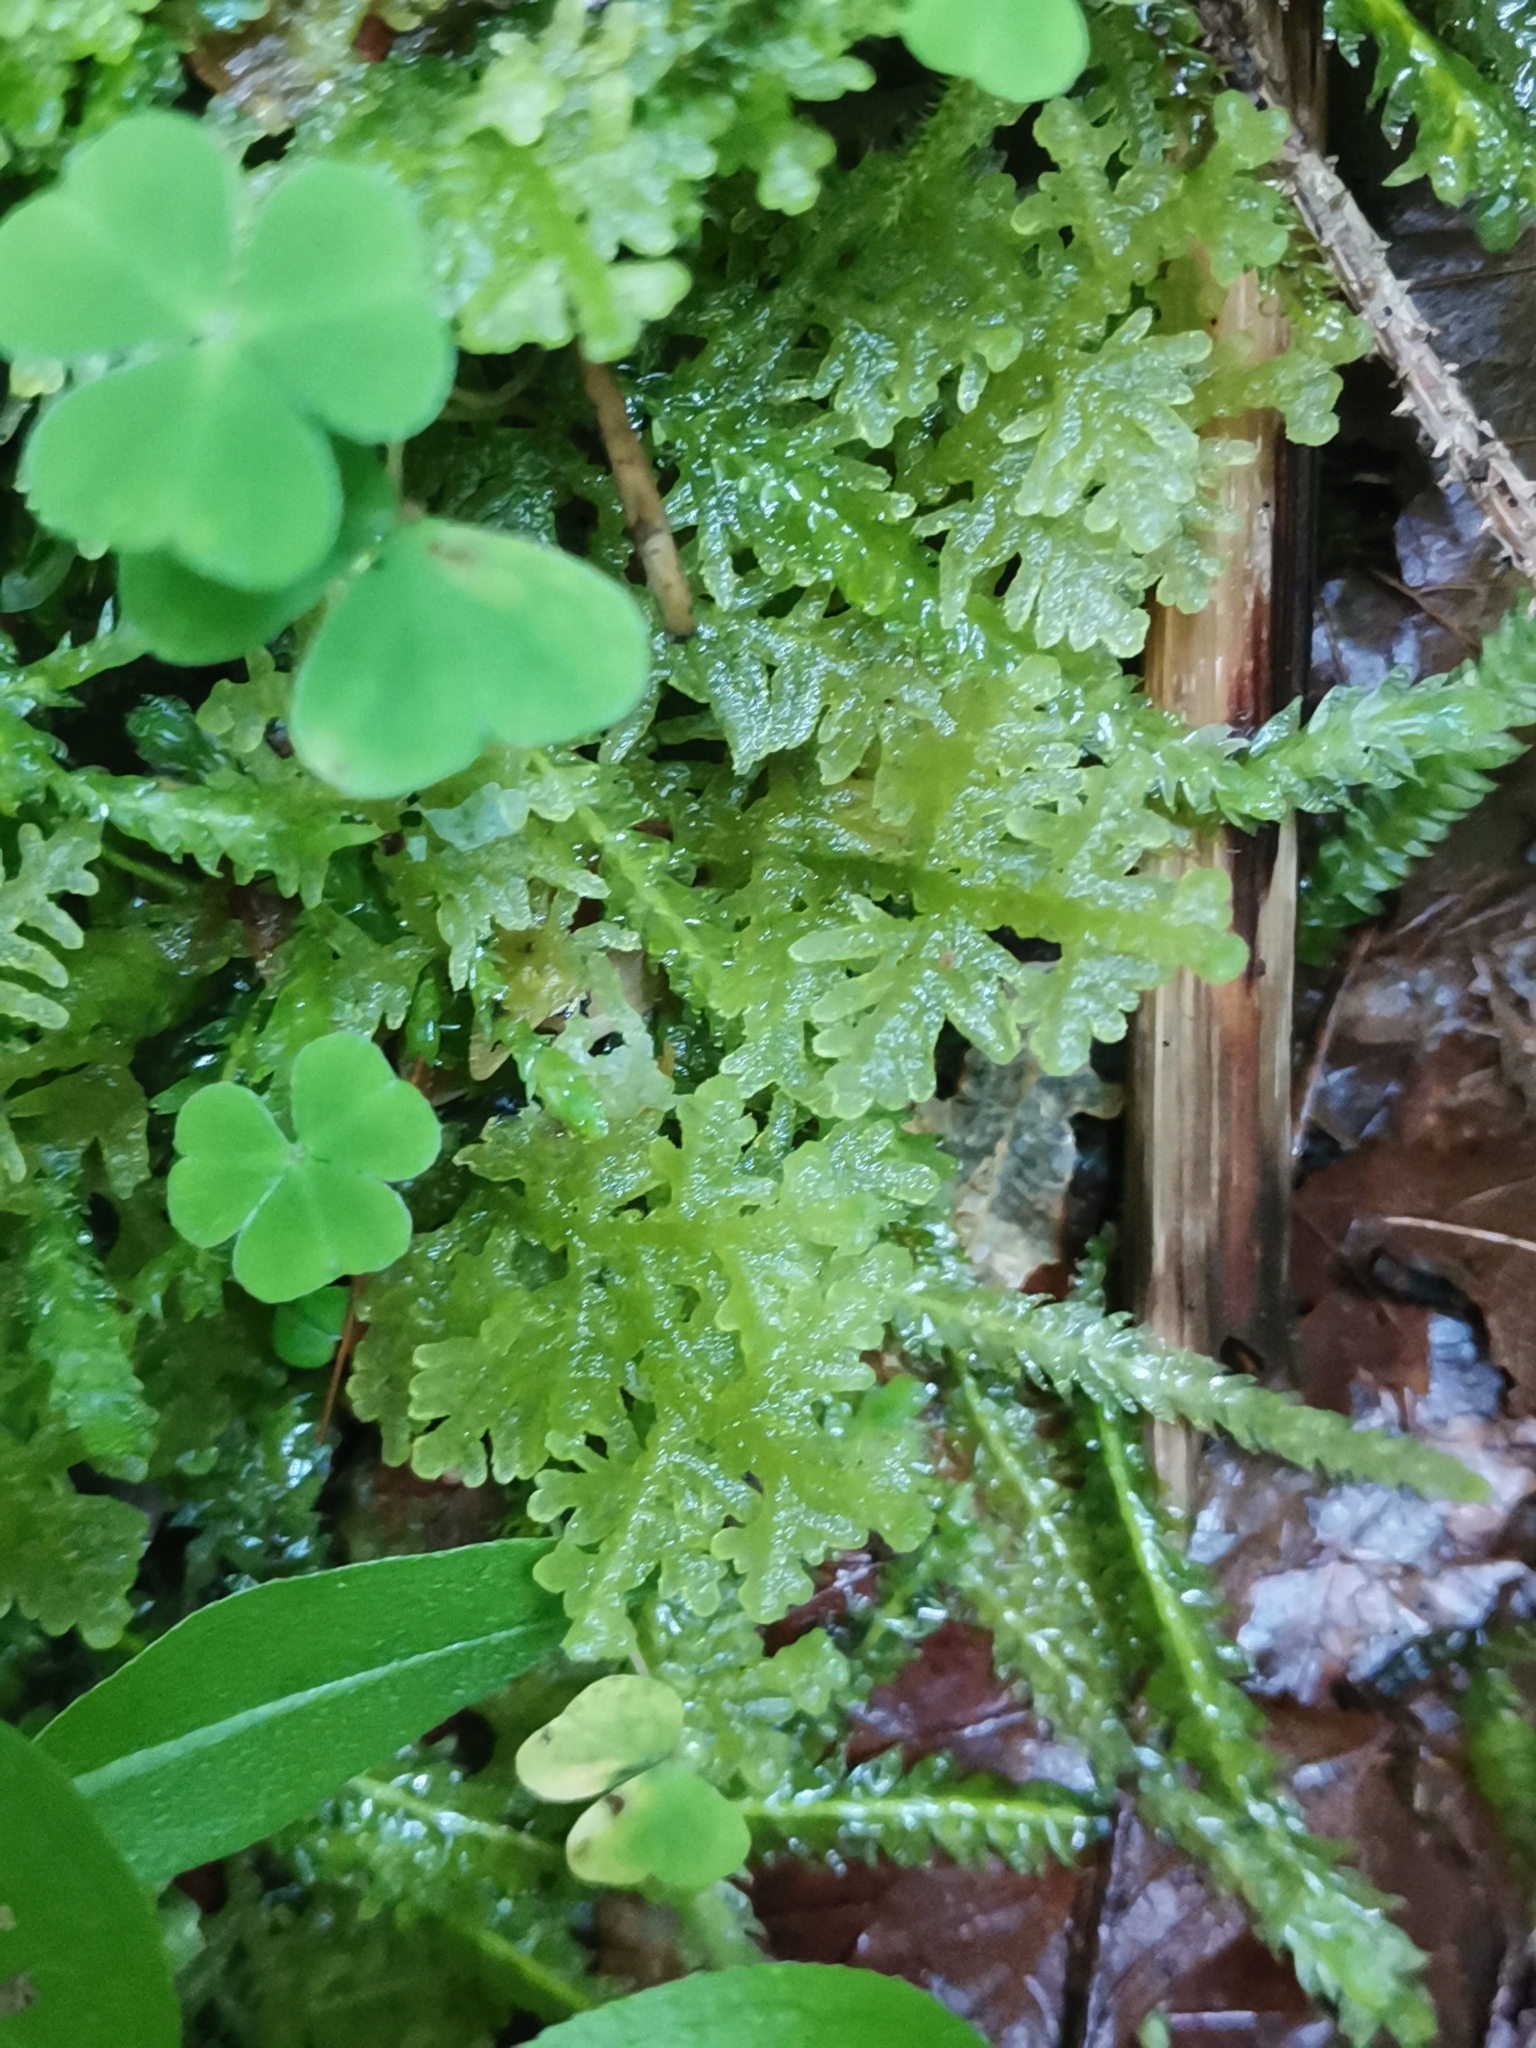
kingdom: Plantae
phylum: Marchantiophyta
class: Jungermanniopsida
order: Jungermanniales
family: Trichocoleaceae
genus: Trichocolea
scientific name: Trichocolea tomentella
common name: Woolly liverwort
